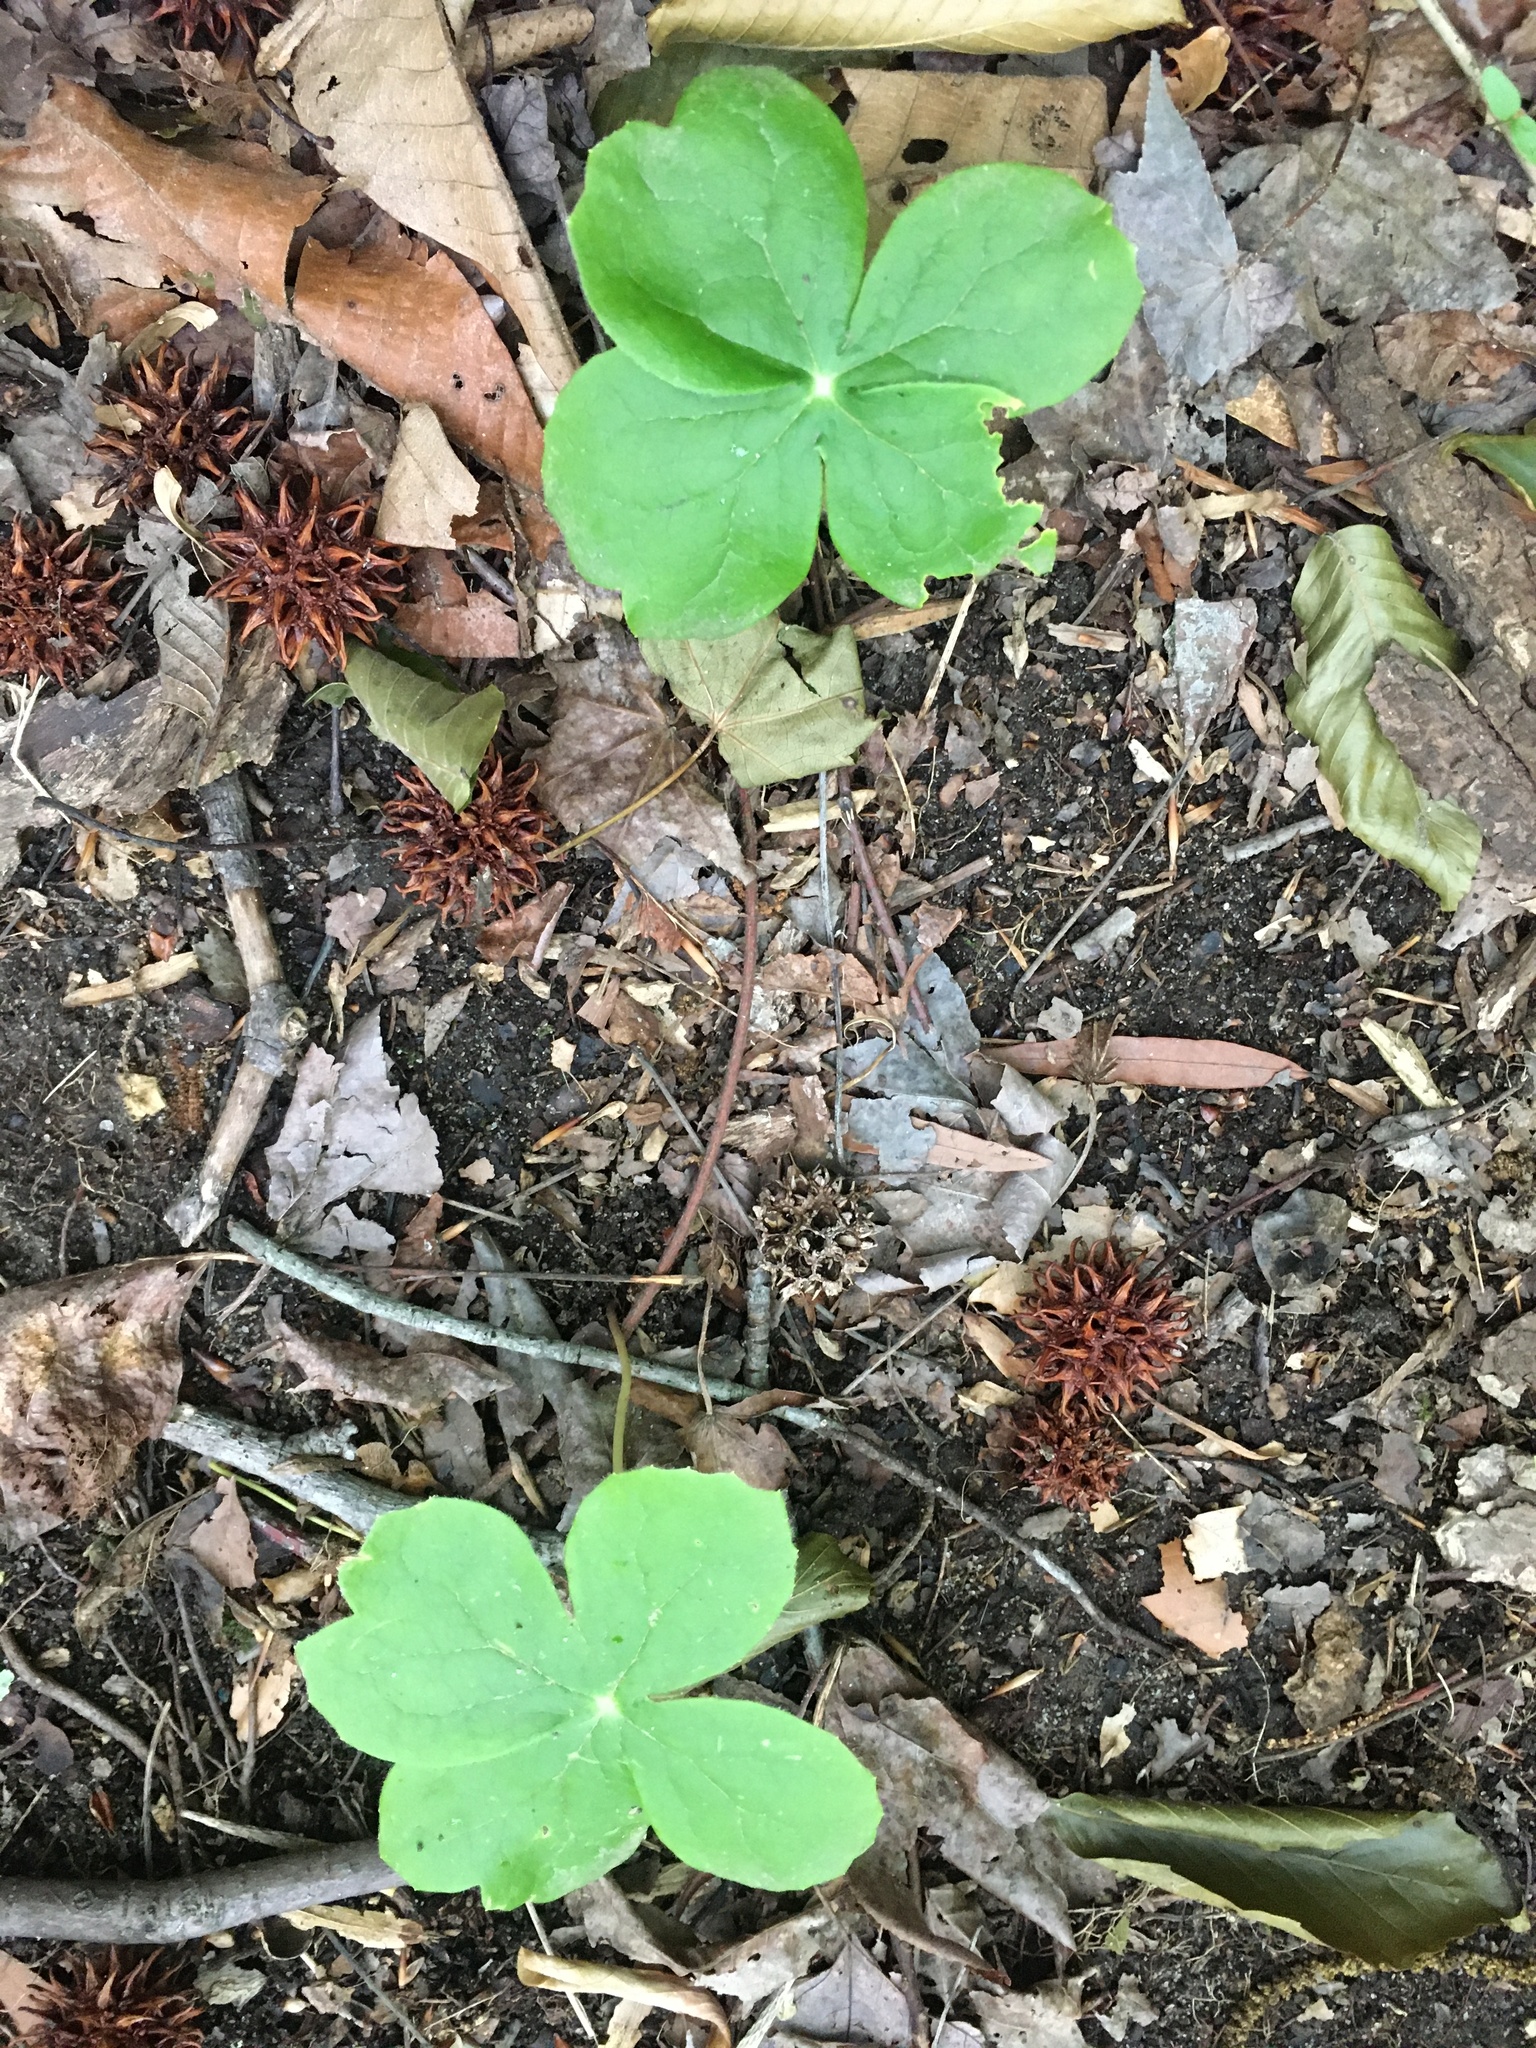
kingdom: Plantae
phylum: Tracheophyta
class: Magnoliopsida
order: Ranunculales
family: Berberidaceae
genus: Podophyllum
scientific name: Podophyllum peltatum
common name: Wild mandrake
